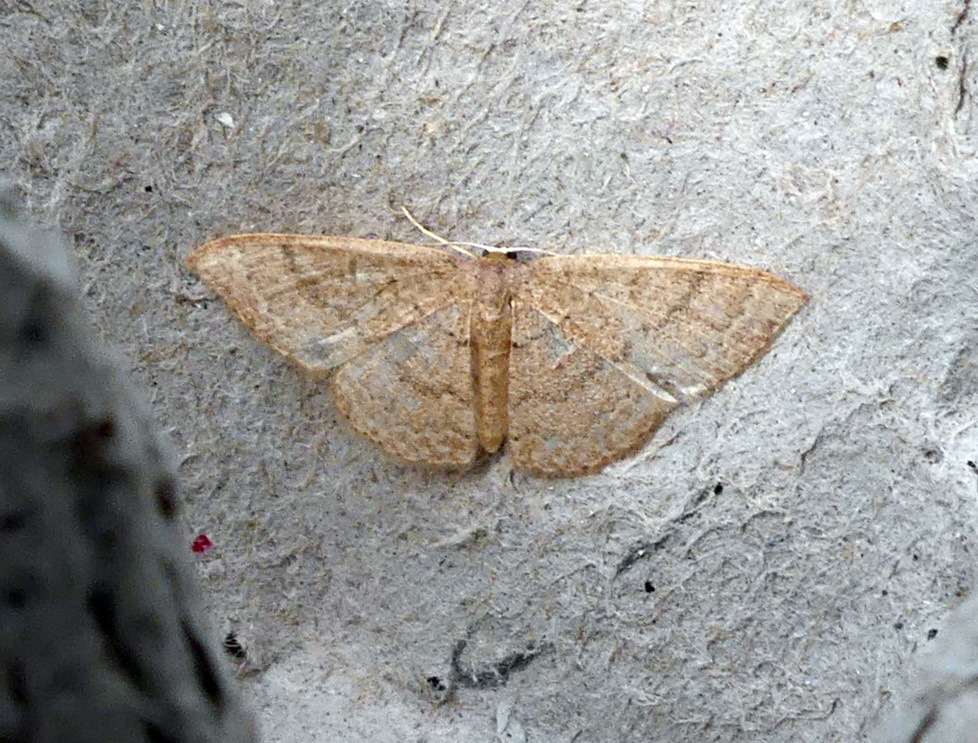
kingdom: Animalia
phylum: Arthropoda
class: Insecta
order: Lepidoptera
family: Geometridae
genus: Pleuroprucha
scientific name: Pleuroprucha insulsaria
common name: Common tan wave
